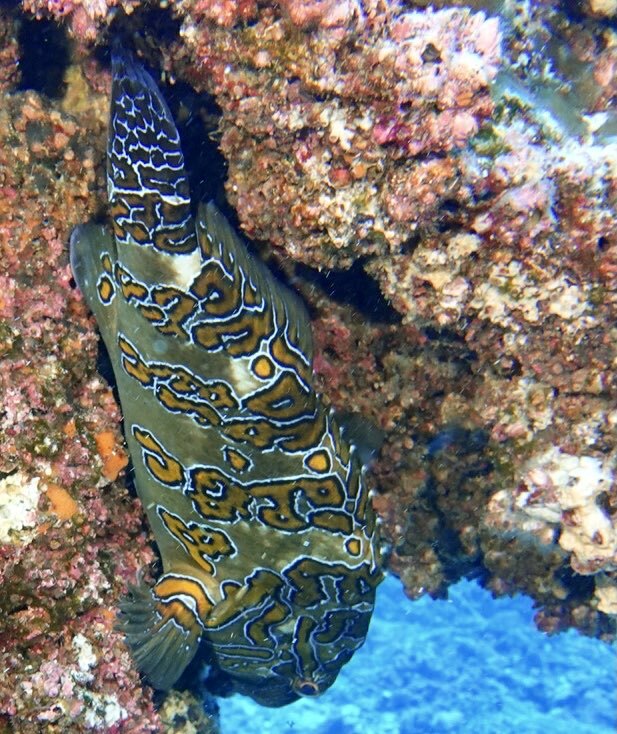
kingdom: Animalia
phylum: Chordata
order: Perciformes
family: Cirrhitidae
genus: Cirrhitus
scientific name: Cirrhitus rivulatus
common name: Giant hawkfish
